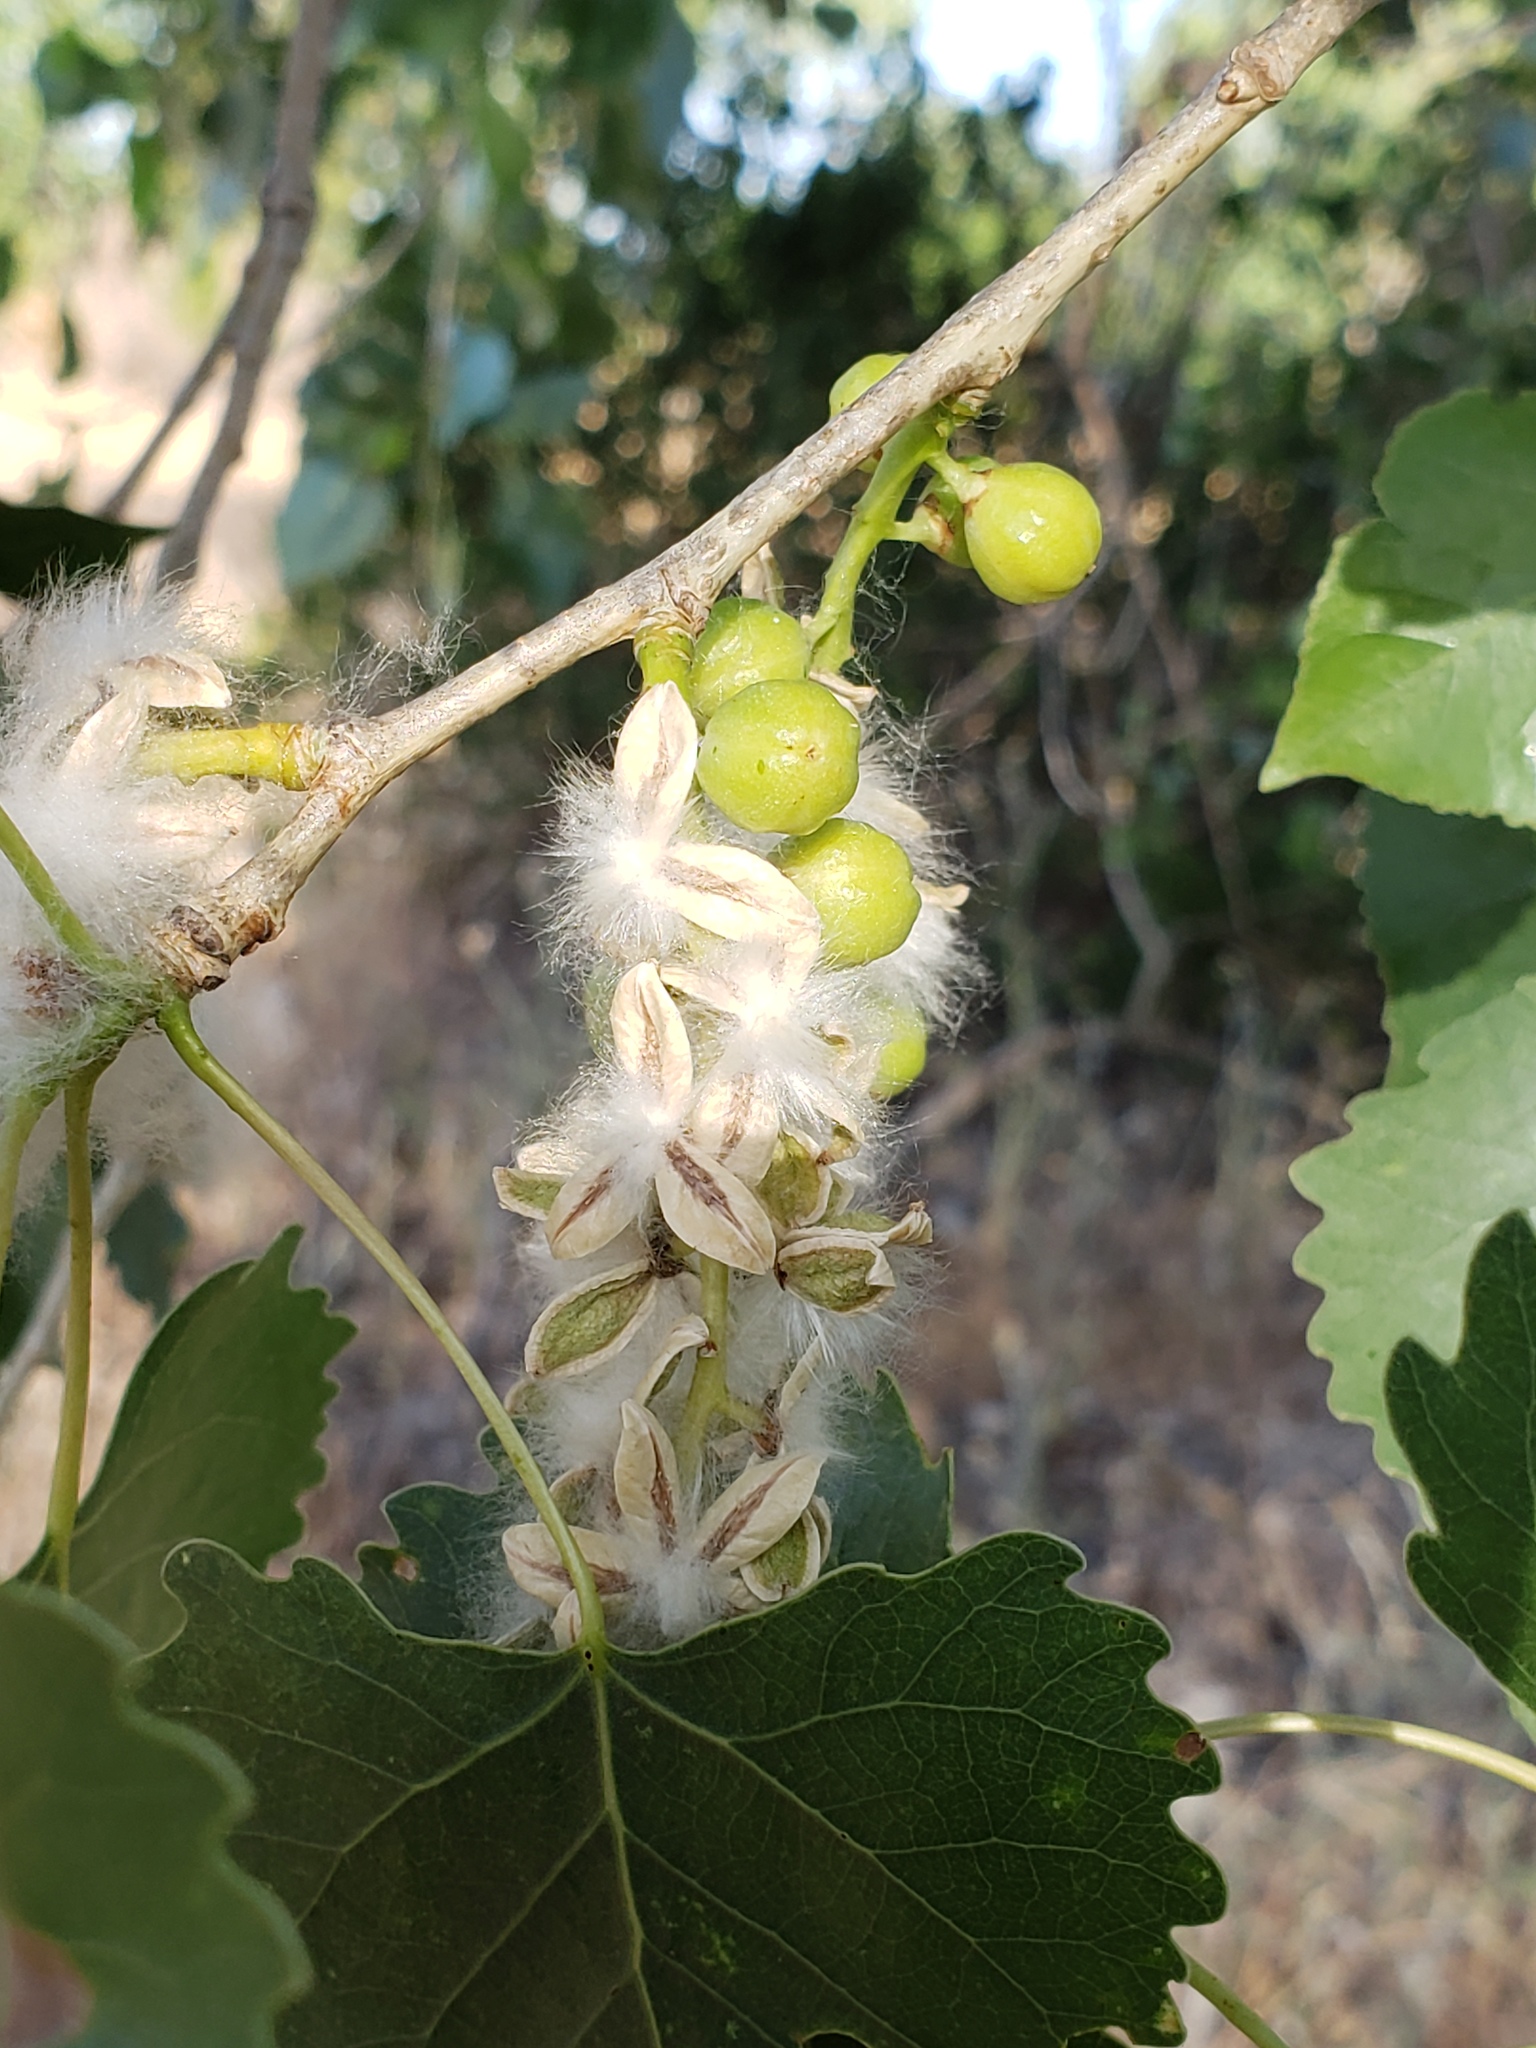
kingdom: Plantae
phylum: Tracheophyta
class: Magnoliopsida
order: Malpighiales
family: Salicaceae
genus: Populus
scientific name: Populus fremontii
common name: Fremont's cottonwood
